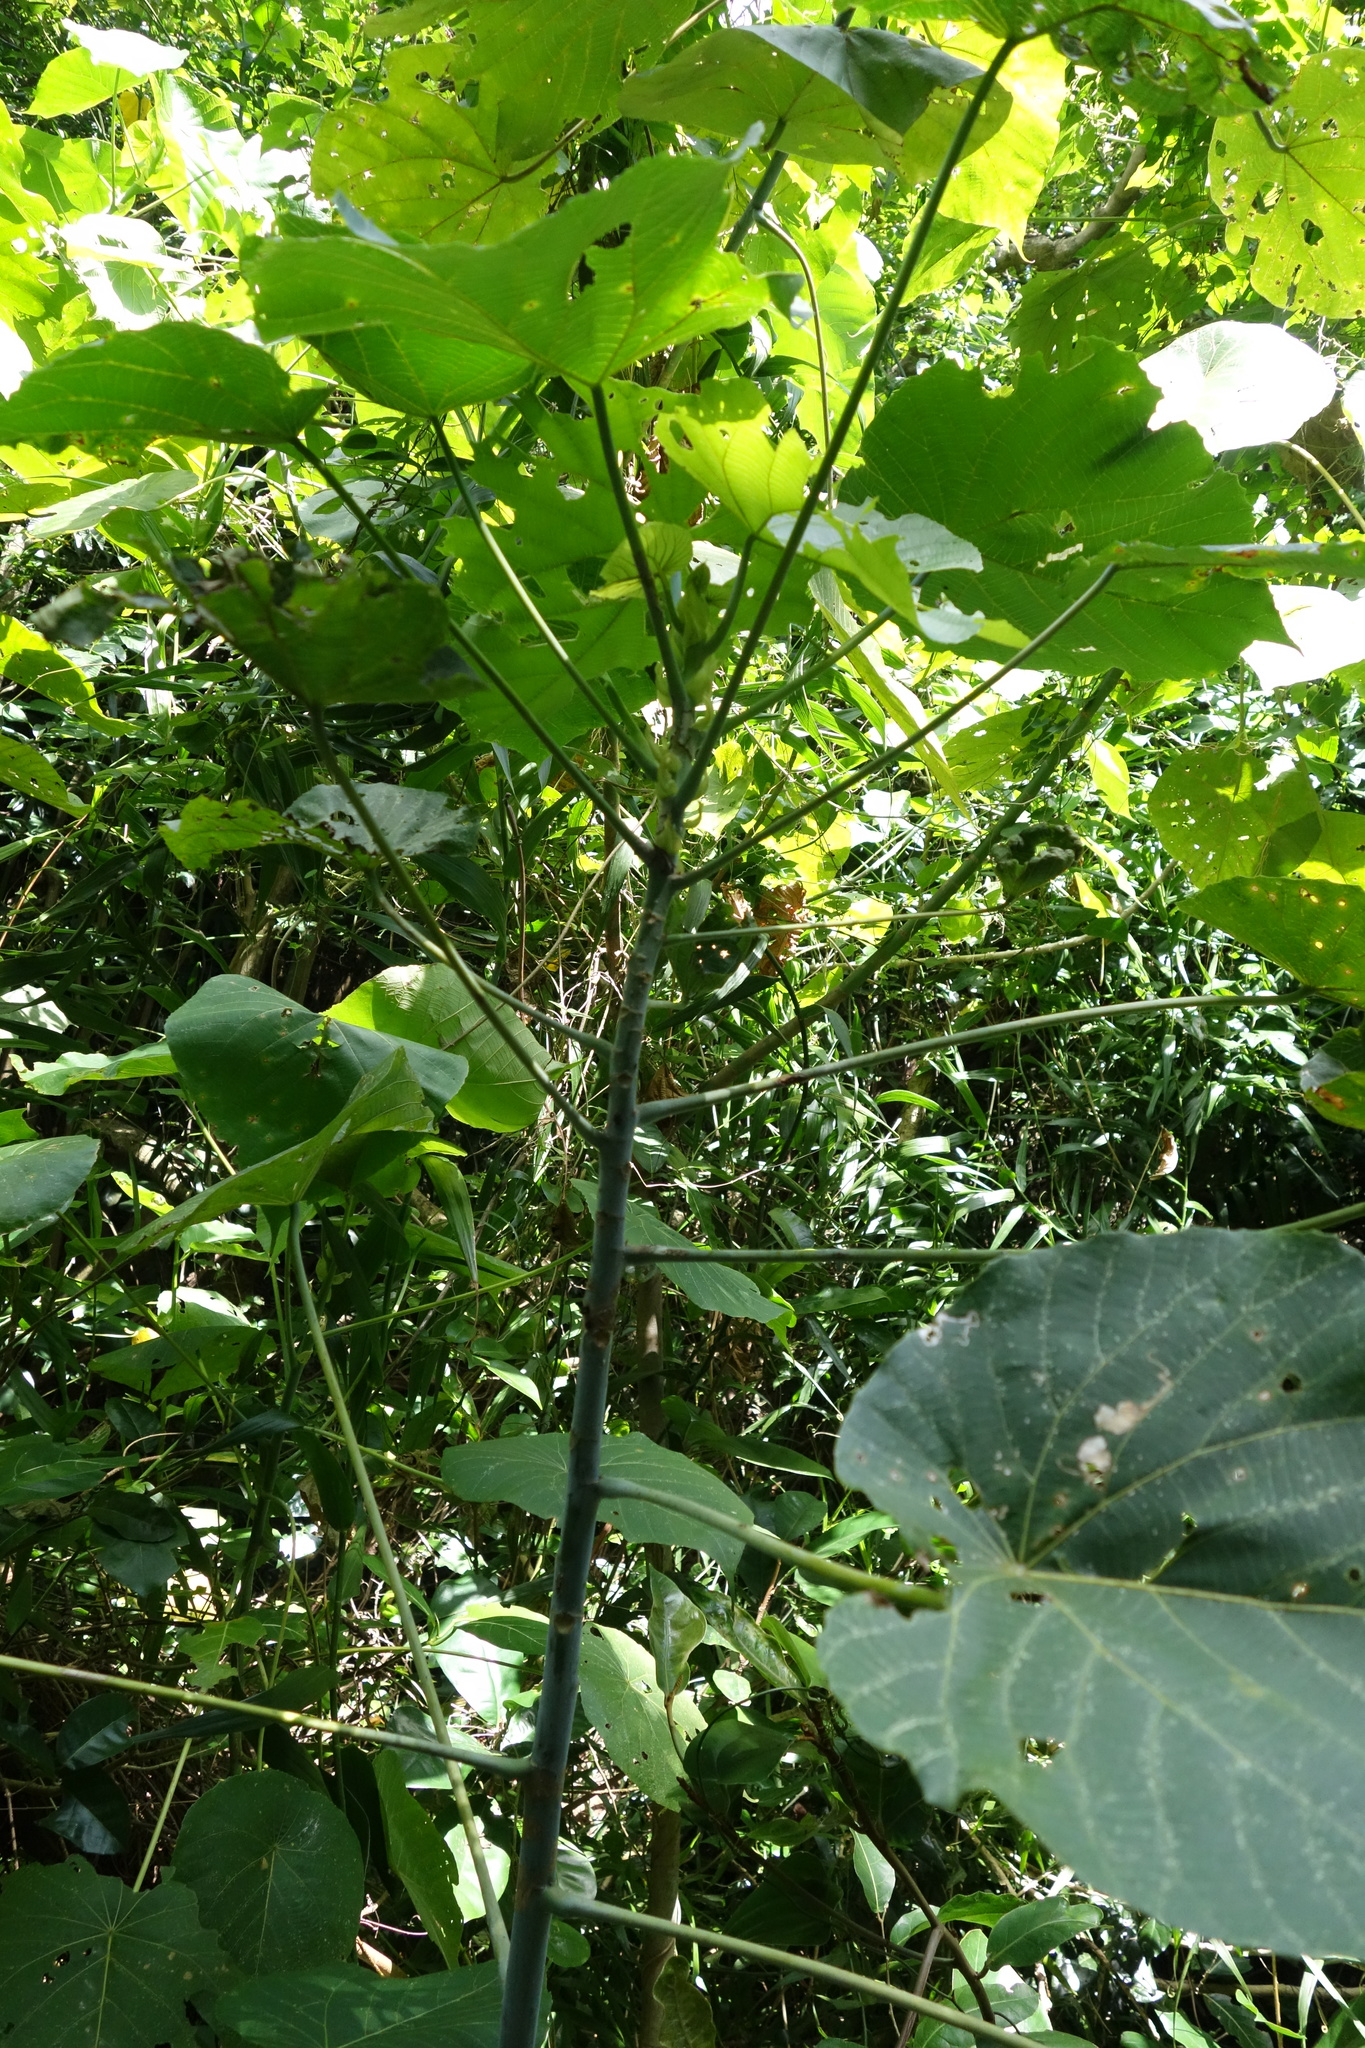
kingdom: Plantae
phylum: Tracheophyta
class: Magnoliopsida
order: Malpighiales
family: Euphorbiaceae
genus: Macaranga
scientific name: Macaranga tanarius
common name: Parasol leaf tree
